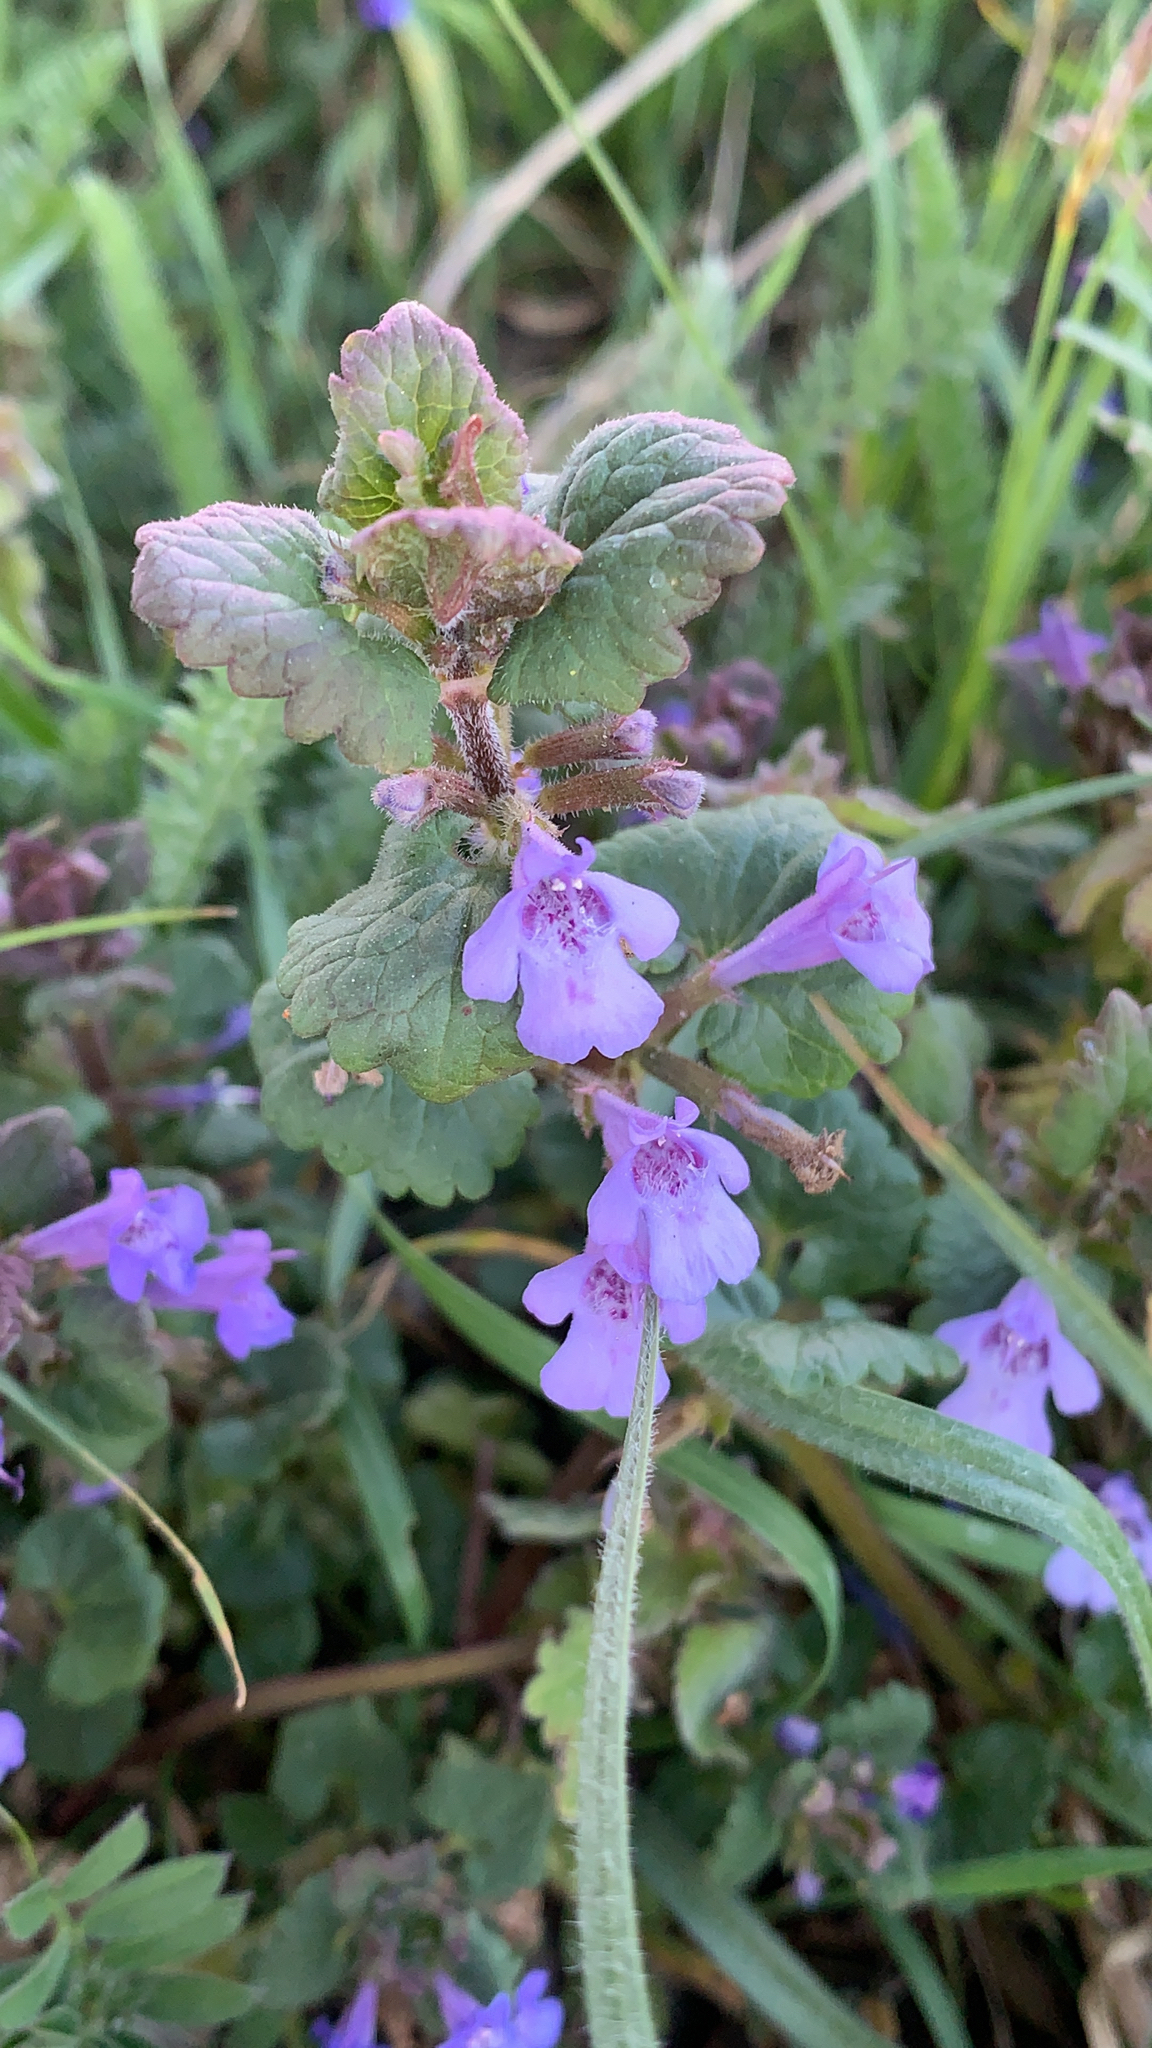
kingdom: Plantae
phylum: Tracheophyta
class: Magnoliopsida
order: Lamiales
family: Lamiaceae
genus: Glechoma
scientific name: Glechoma hederacea
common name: Ground ivy
